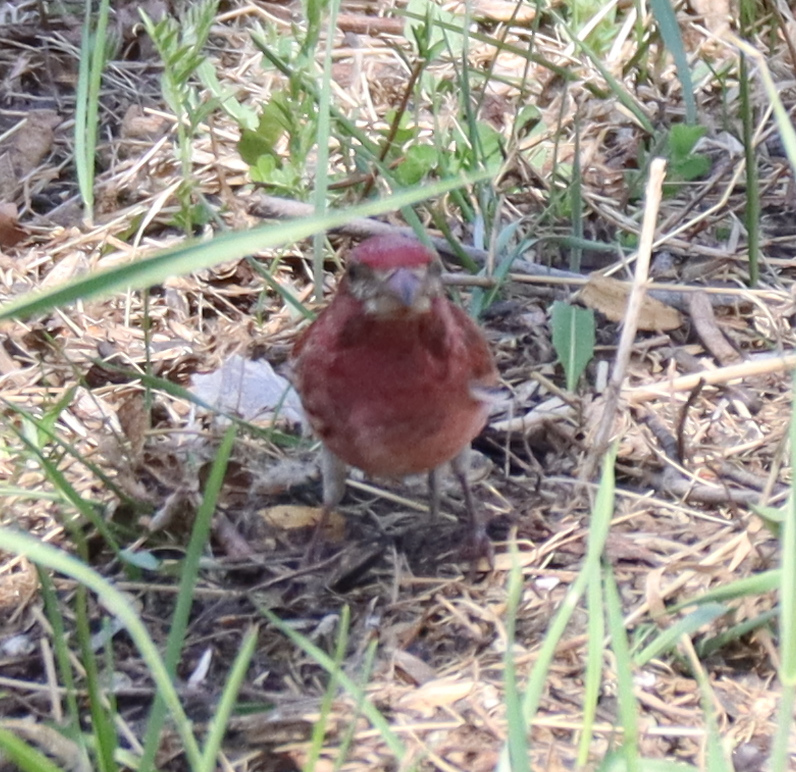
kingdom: Animalia
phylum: Chordata
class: Aves
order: Passeriformes
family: Fringillidae
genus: Haemorhous
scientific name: Haemorhous purpureus
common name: Purple finch
